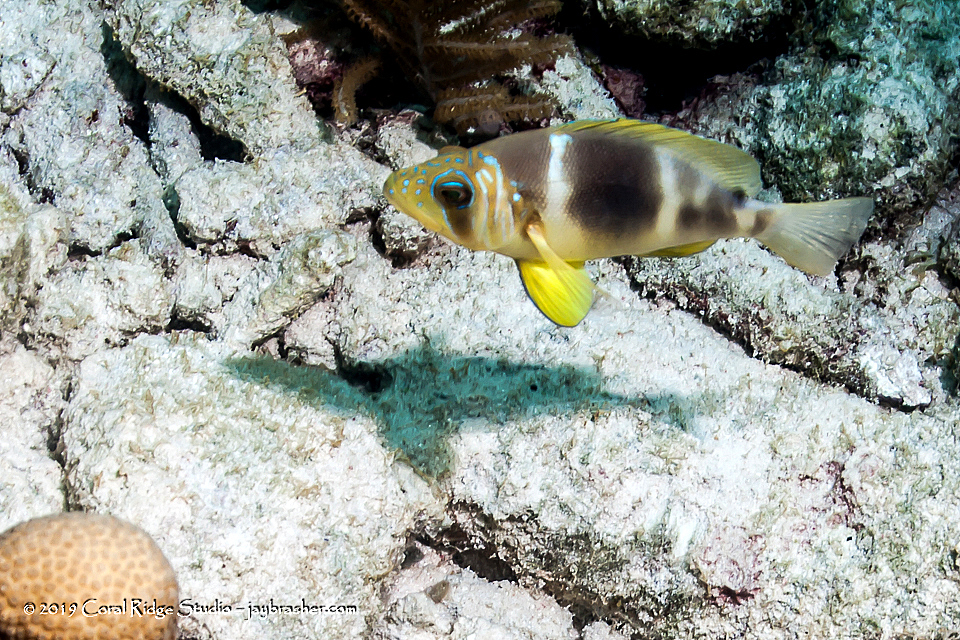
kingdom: Animalia
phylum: Chordata
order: Perciformes
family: Serranidae
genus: Hypoplectrus
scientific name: Hypoplectrus puella
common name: Barred hamlet
